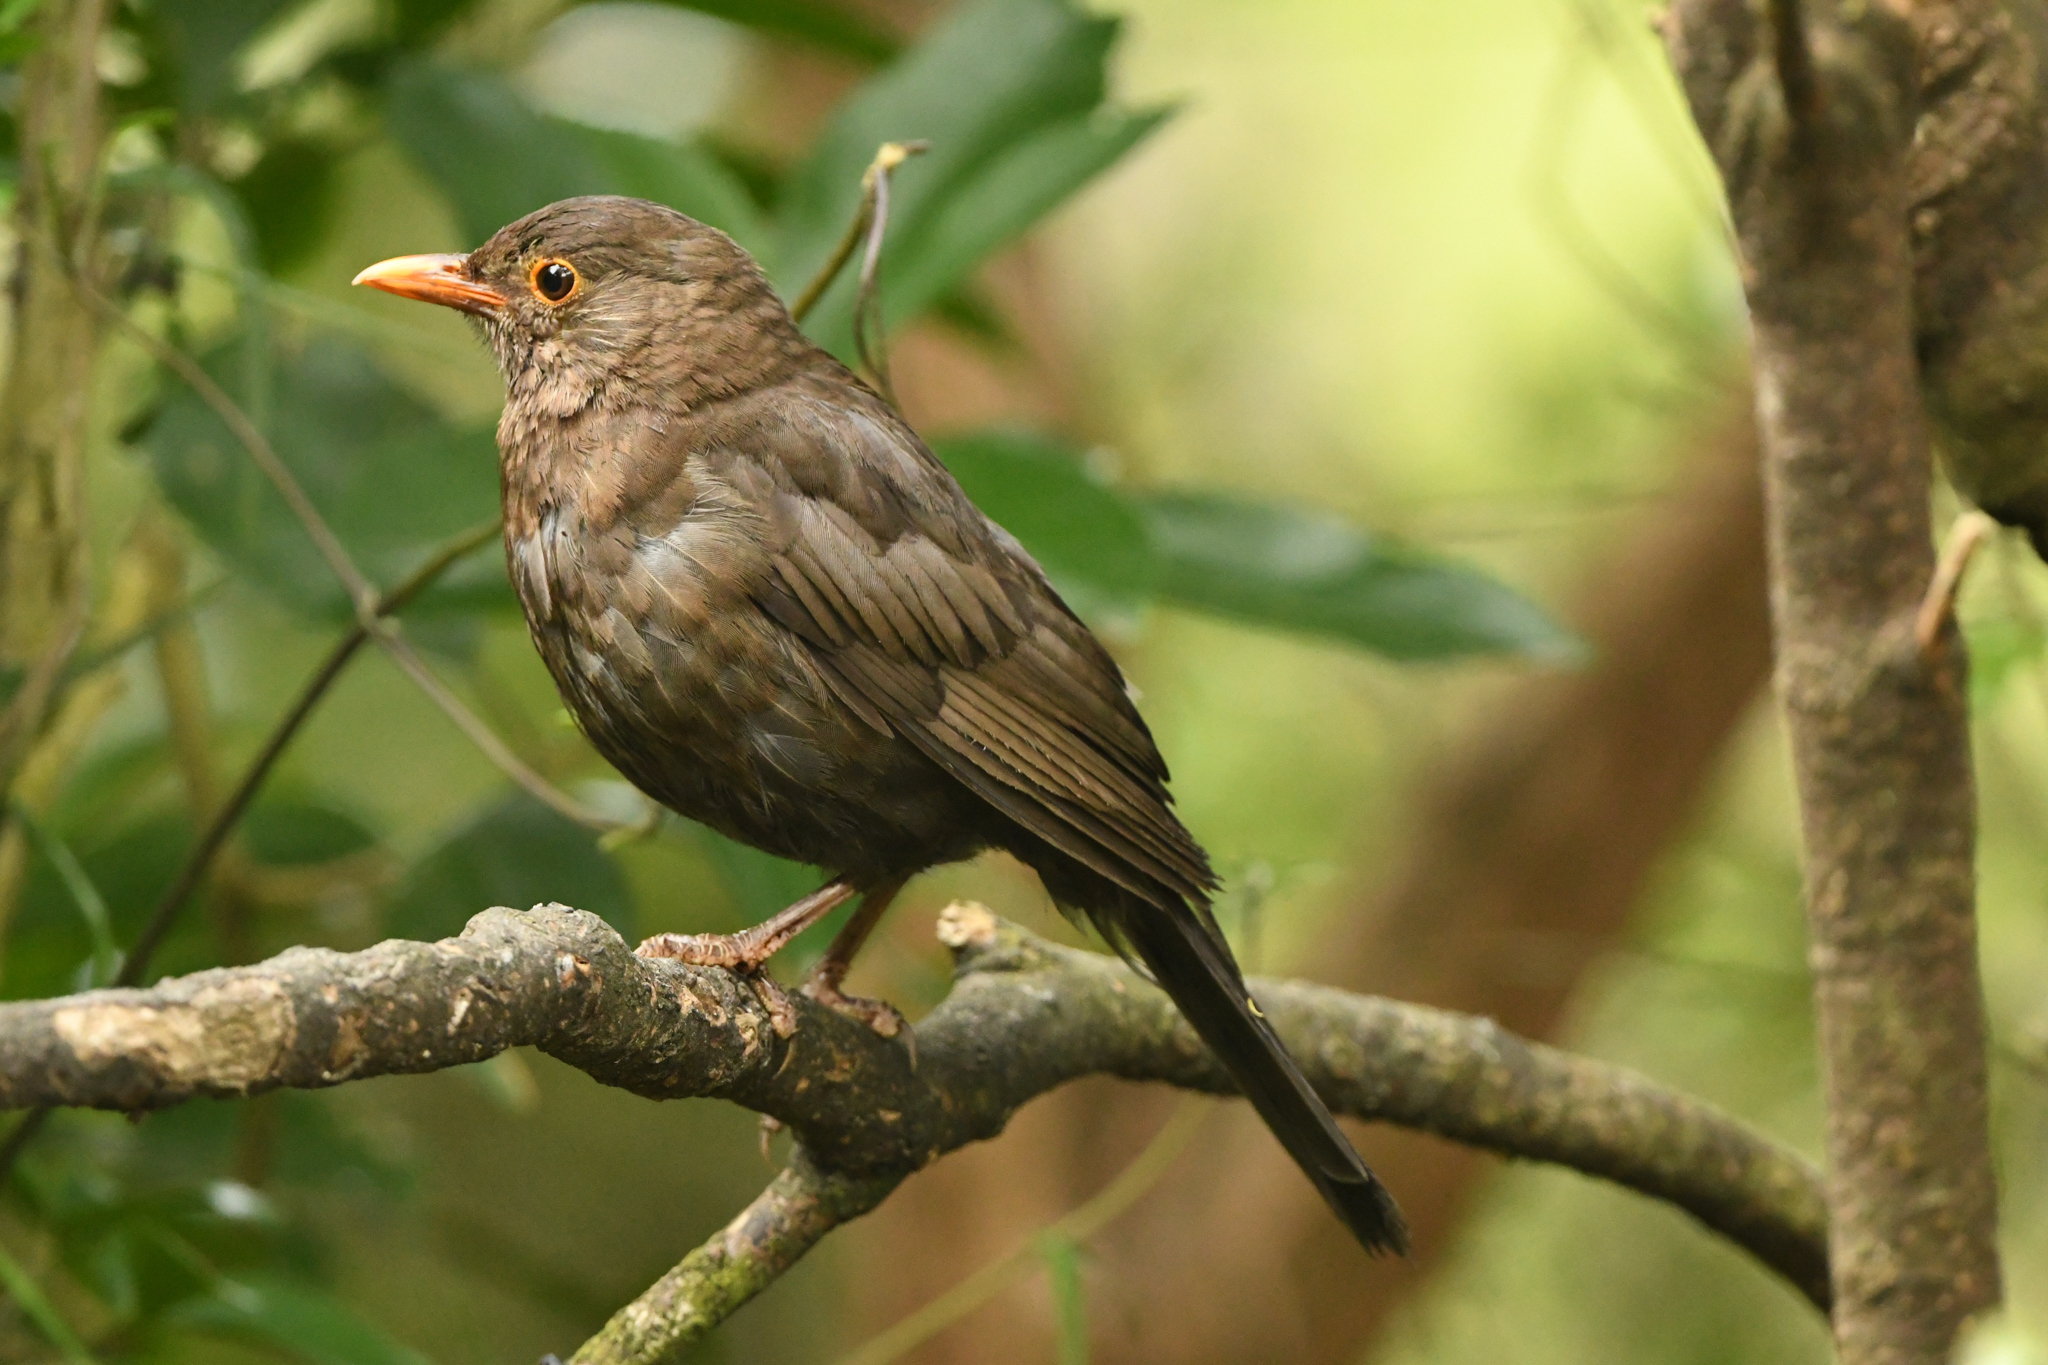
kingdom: Animalia
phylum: Chordata
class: Aves
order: Passeriformes
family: Turdidae
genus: Turdus
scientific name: Turdus merula
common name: Common blackbird
